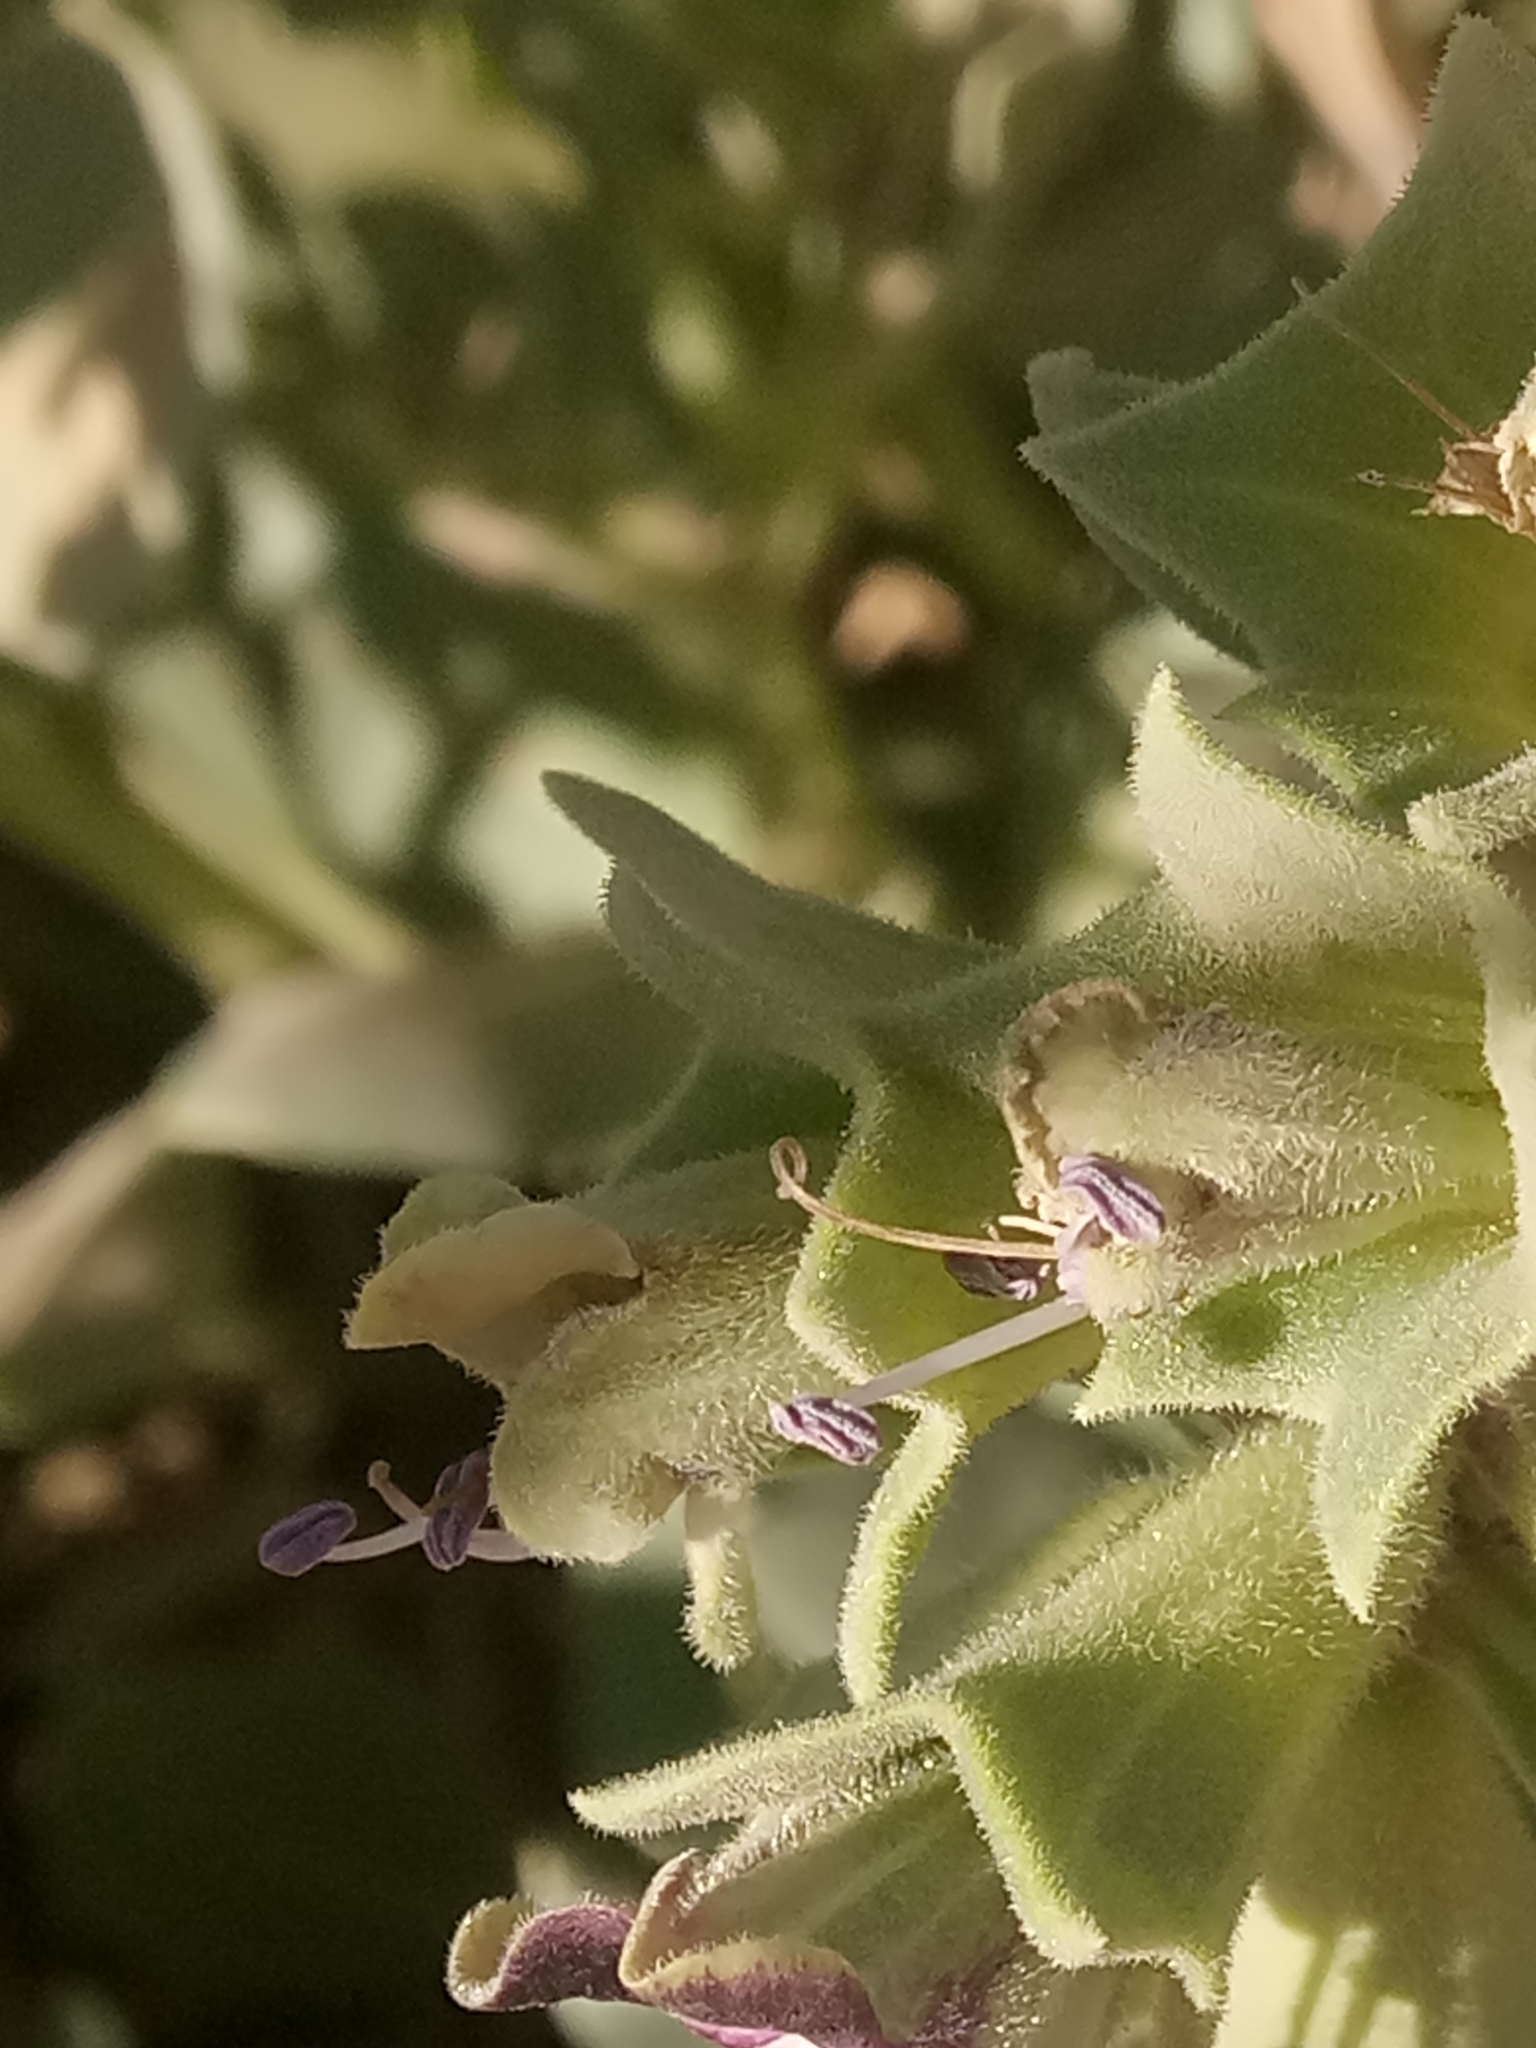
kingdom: Plantae
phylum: Tracheophyta
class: Magnoliopsida
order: Solanales
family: Solanaceae
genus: Hyoscyamus
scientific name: Hyoscyamus muticus
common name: Henbane
